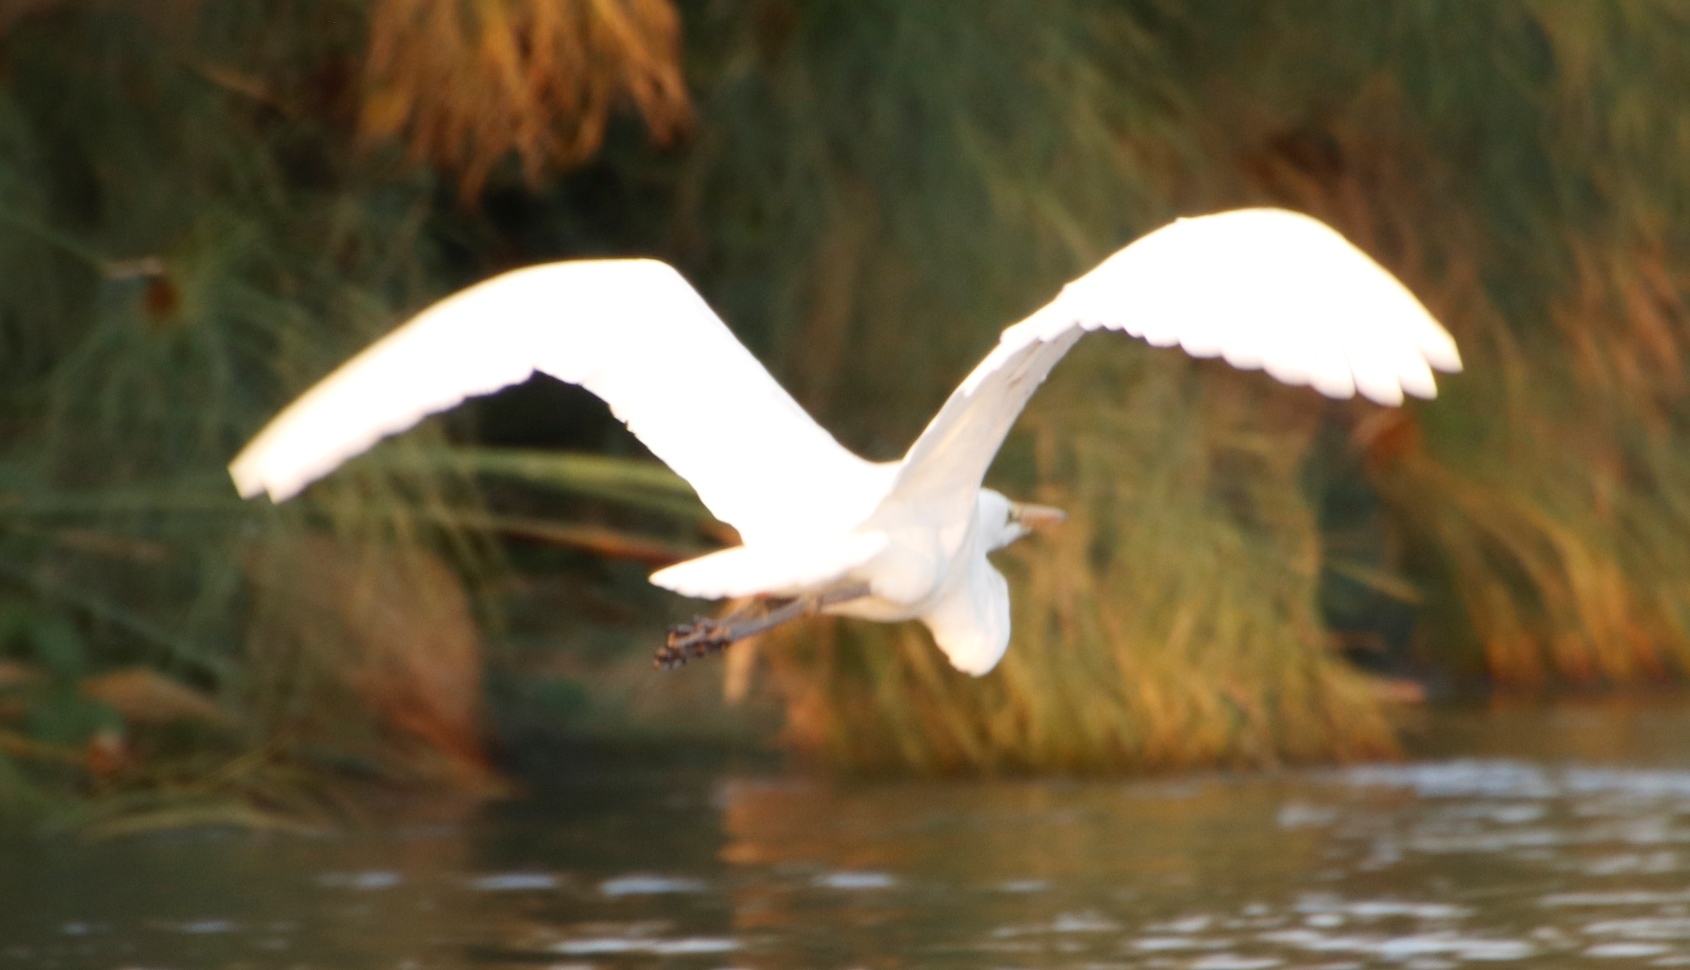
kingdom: Animalia
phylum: Chordata
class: Aves
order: Pelecaniformes
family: Ardeidae
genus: Ardea
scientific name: Ardea alba
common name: Great egret
